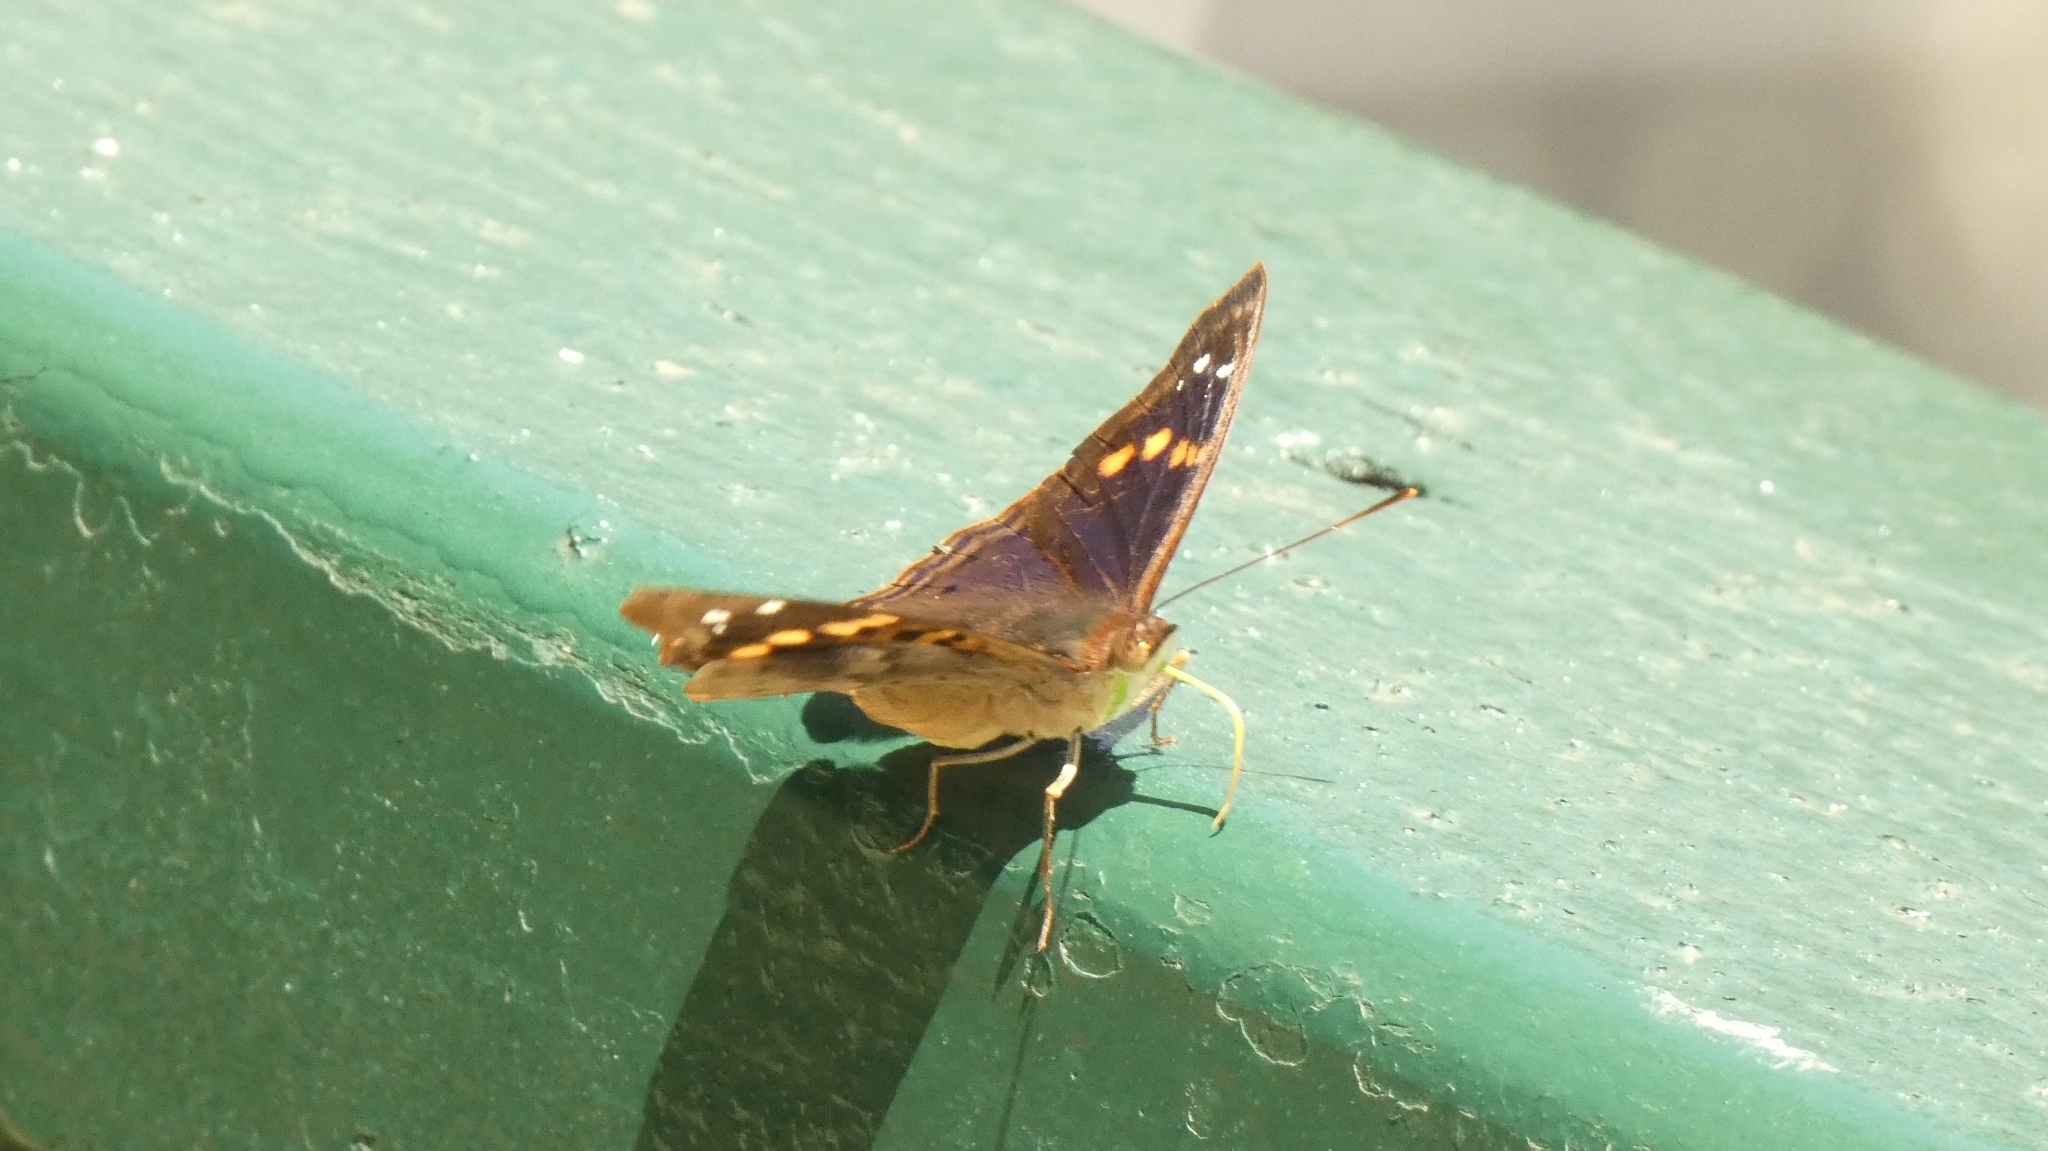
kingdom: Animalia
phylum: Arthropoda
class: Insecta
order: Lepidoptera
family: Nymphalidae
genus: Doxocopa
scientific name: Doxocopa agathina
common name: Agathina emperor
